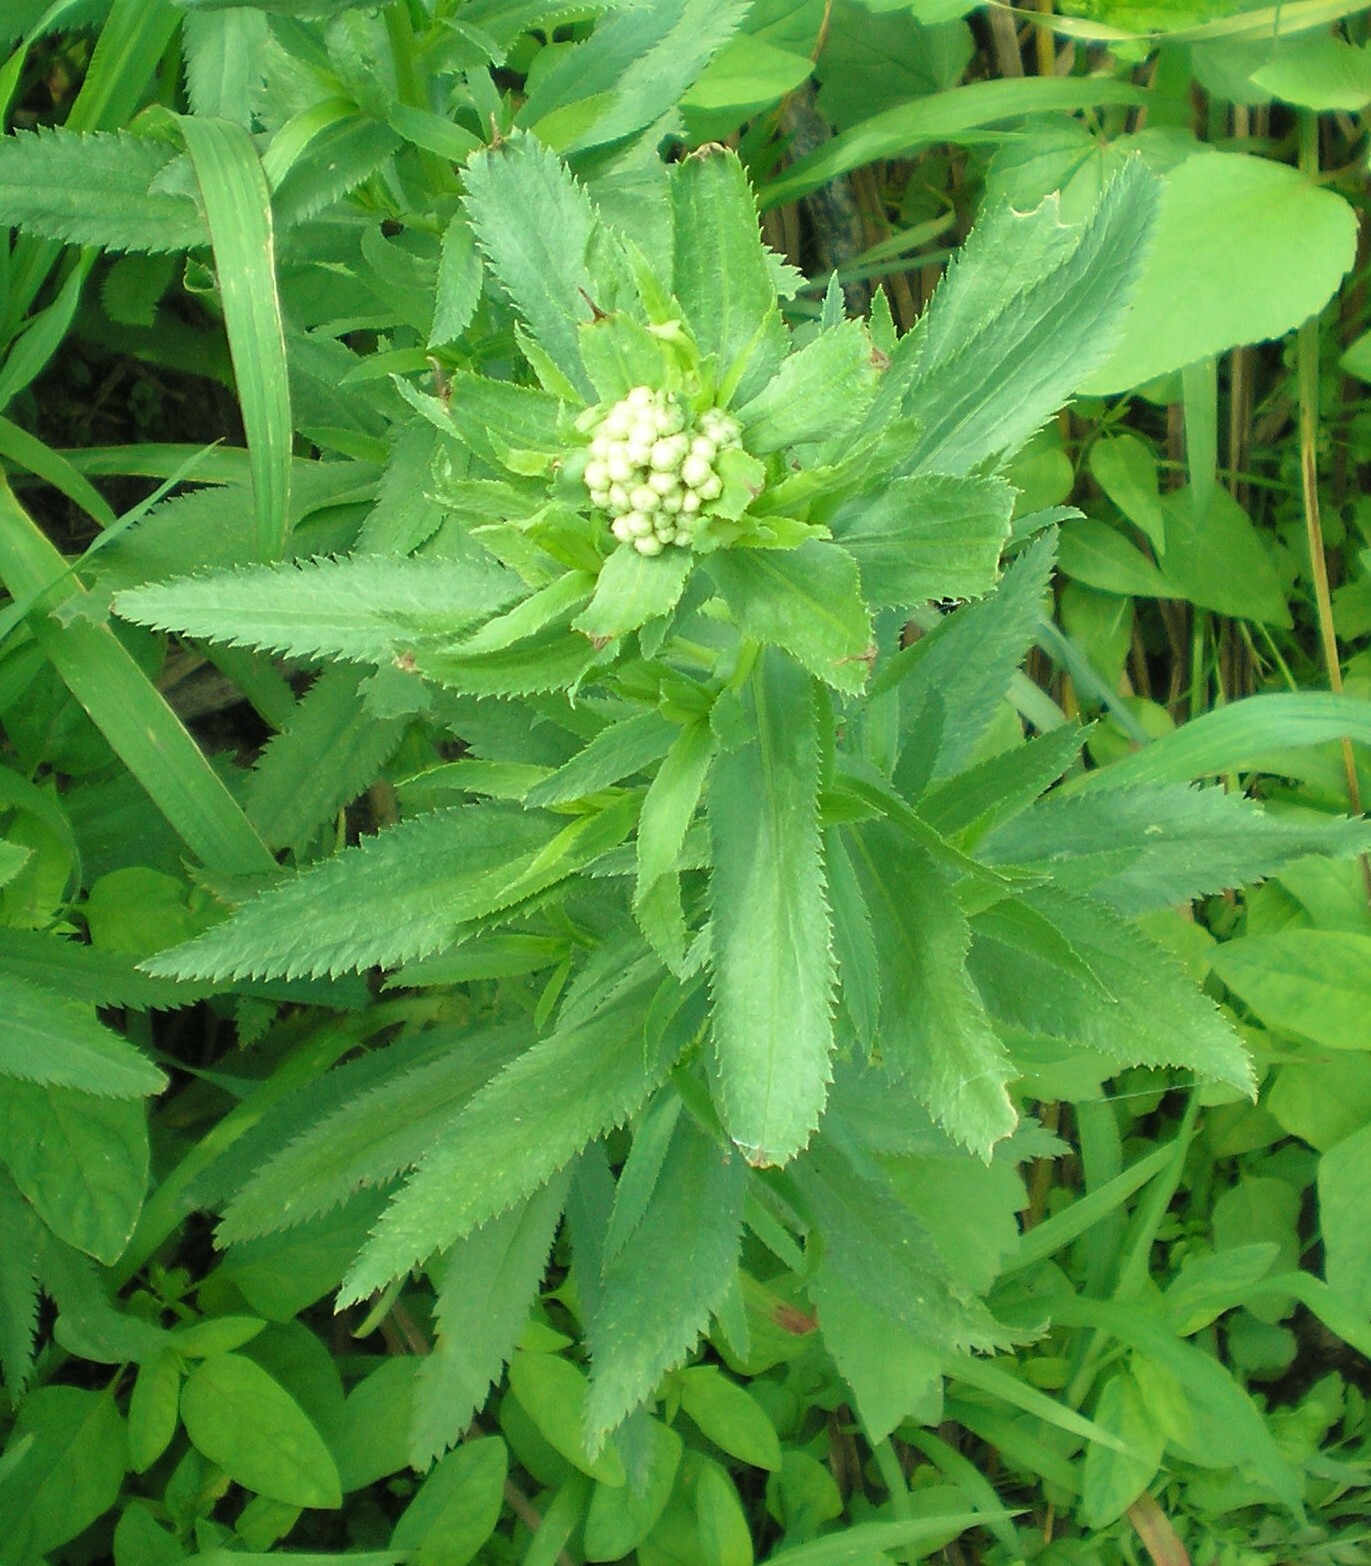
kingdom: Plantae
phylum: Tracheophyta
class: Magnoliopsida
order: Asterales
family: Asteraceae
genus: Achillea
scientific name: Achillea salicifolia
